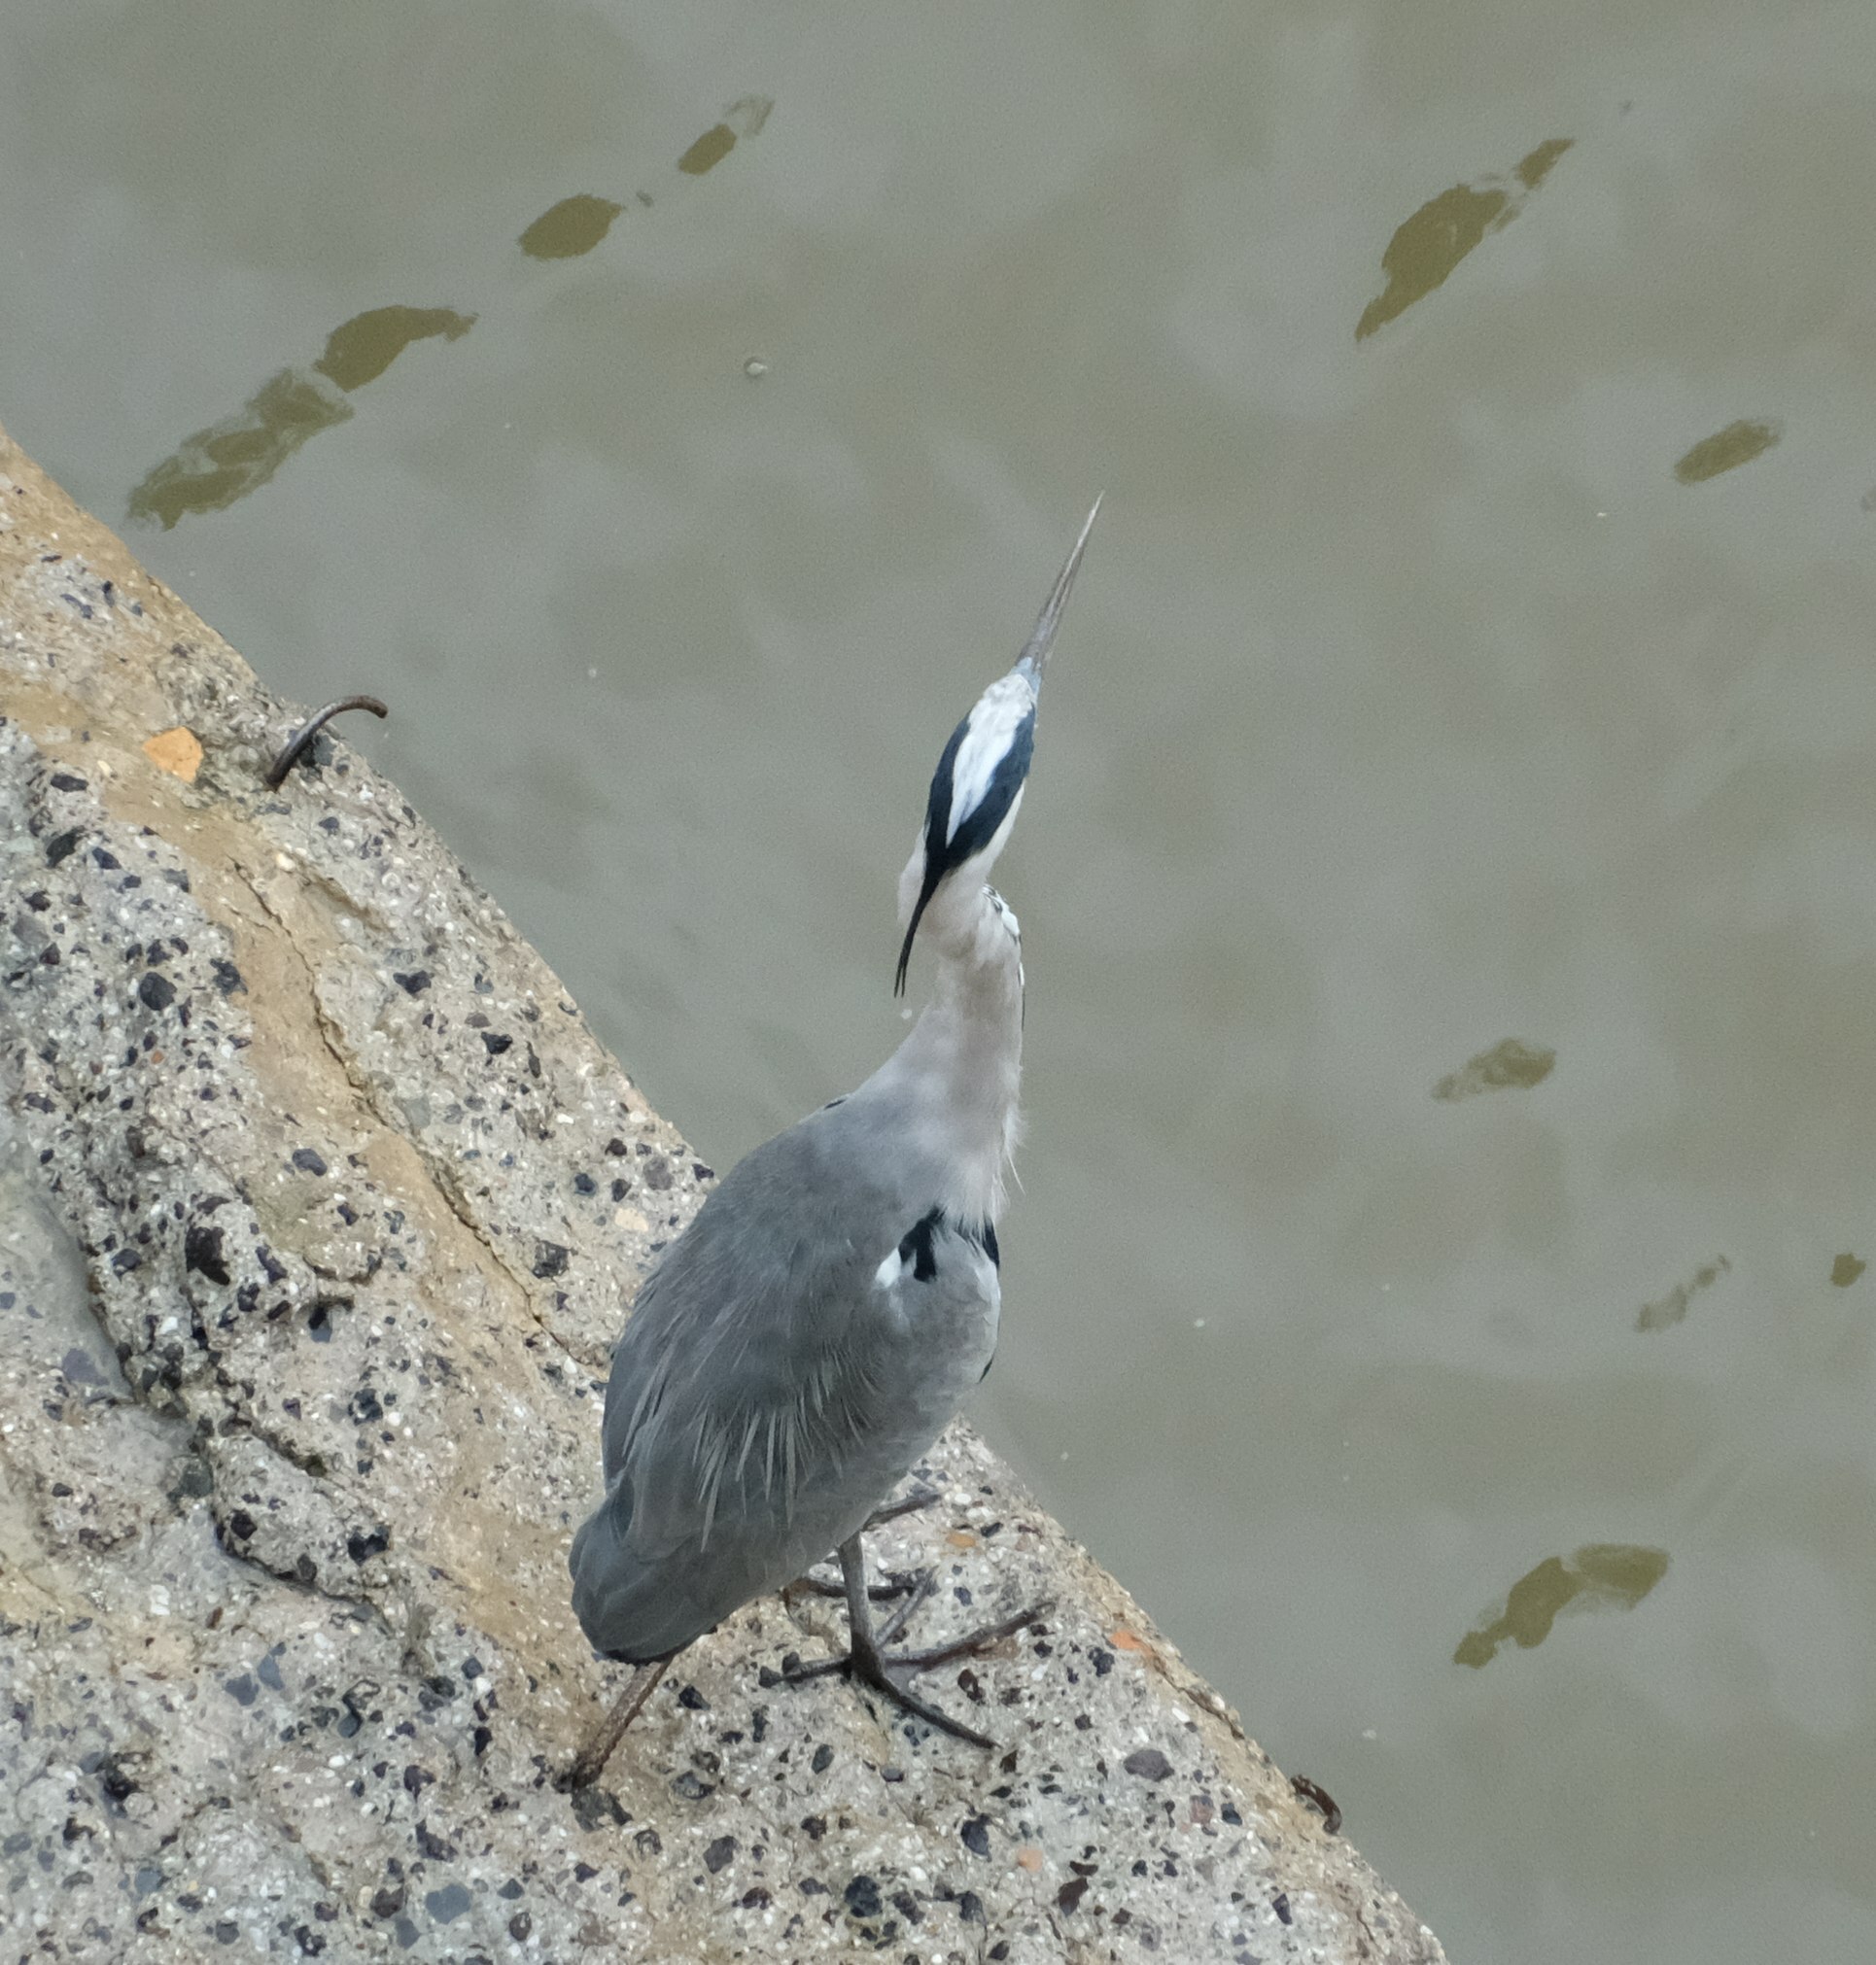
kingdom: Animalia
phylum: Chordata
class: Aves
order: Pelecaniformes
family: Ardeidae
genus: Ardea
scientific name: Ardea cinerea
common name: Grey heron
